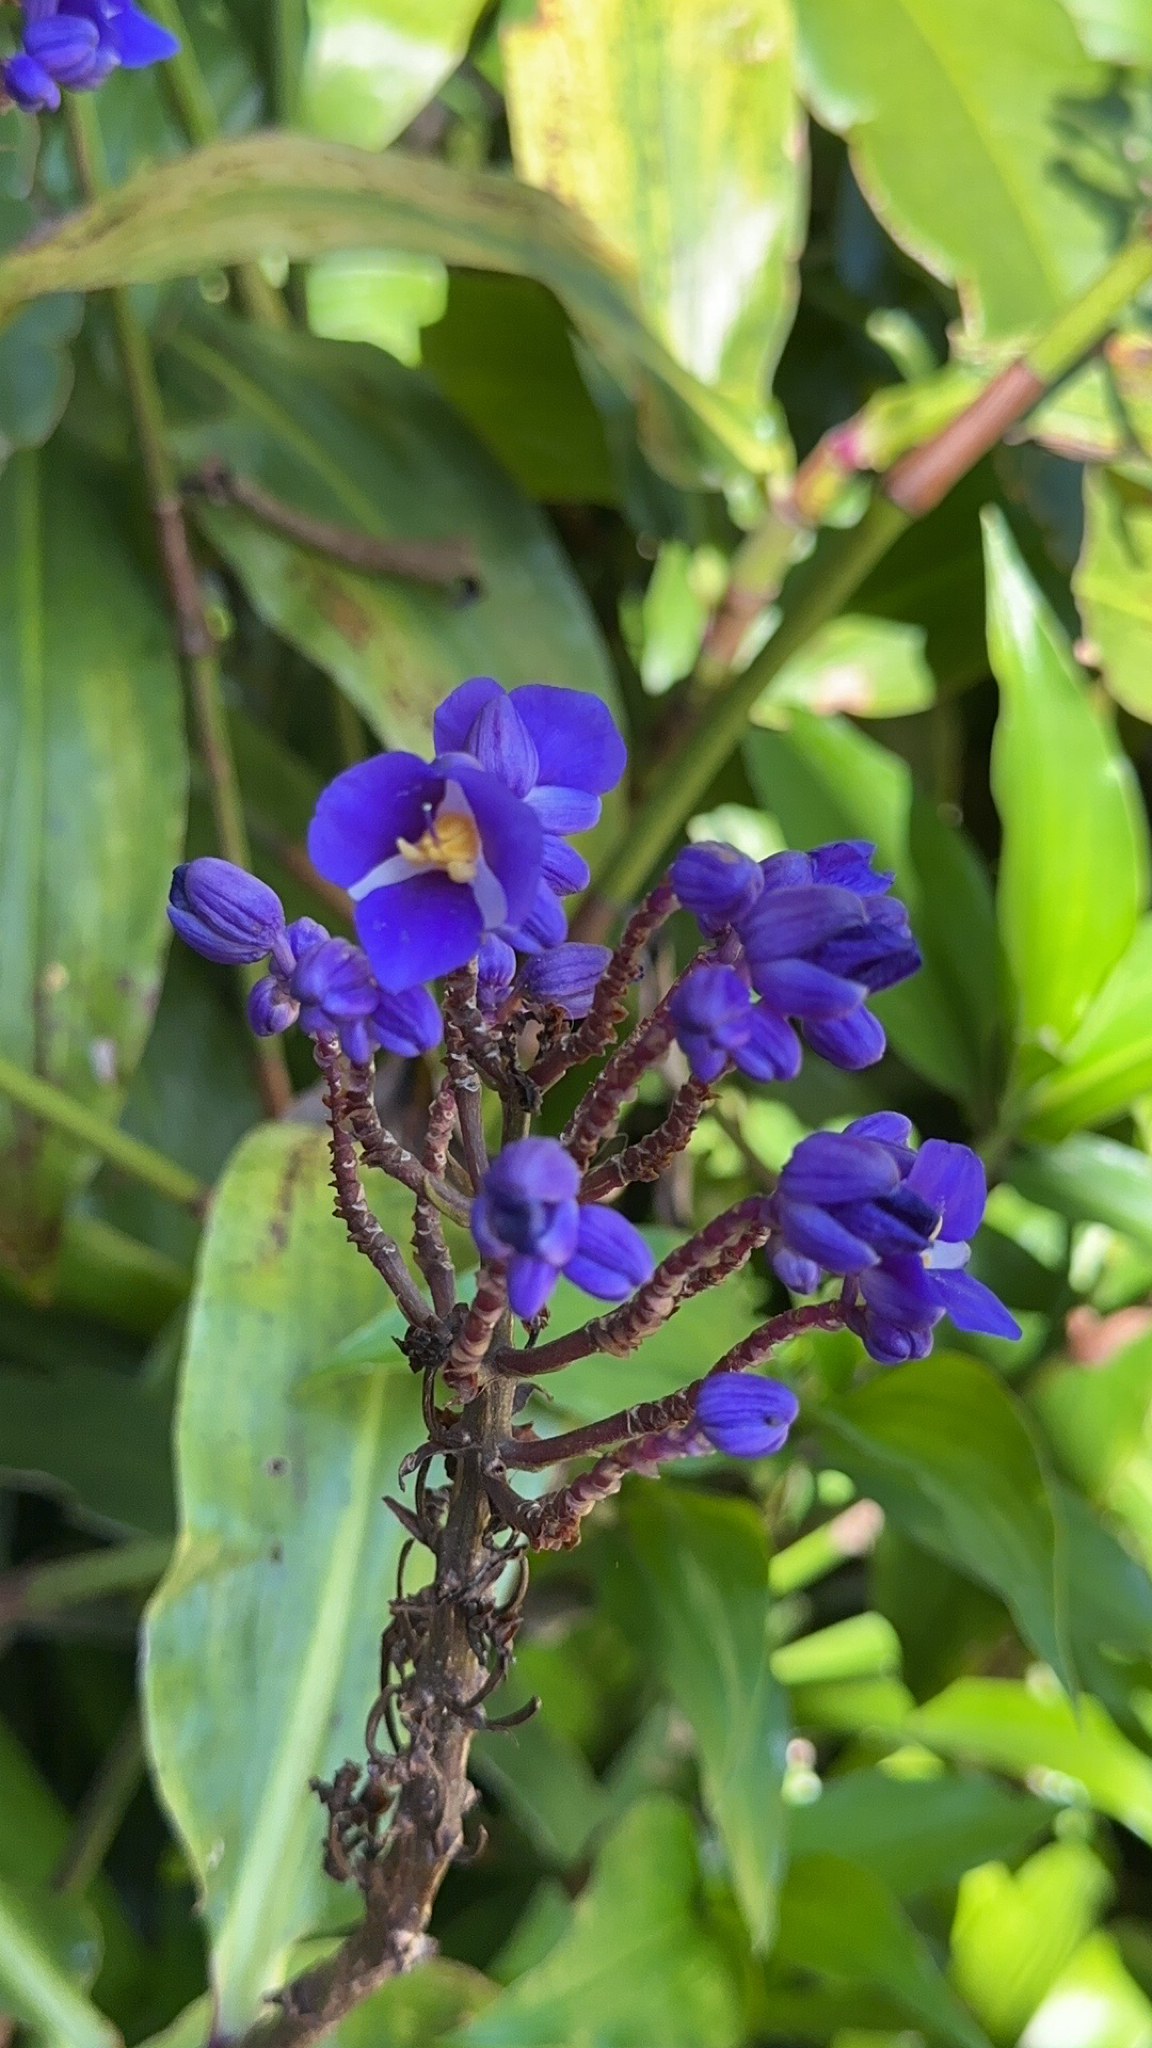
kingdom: Plantae
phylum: Tracheophyta
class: Liliopsida
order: Commelinales
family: Commelinaceae
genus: Dichorisandra
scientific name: Dichorisandra thyrsiflora
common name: Blue-ginger
